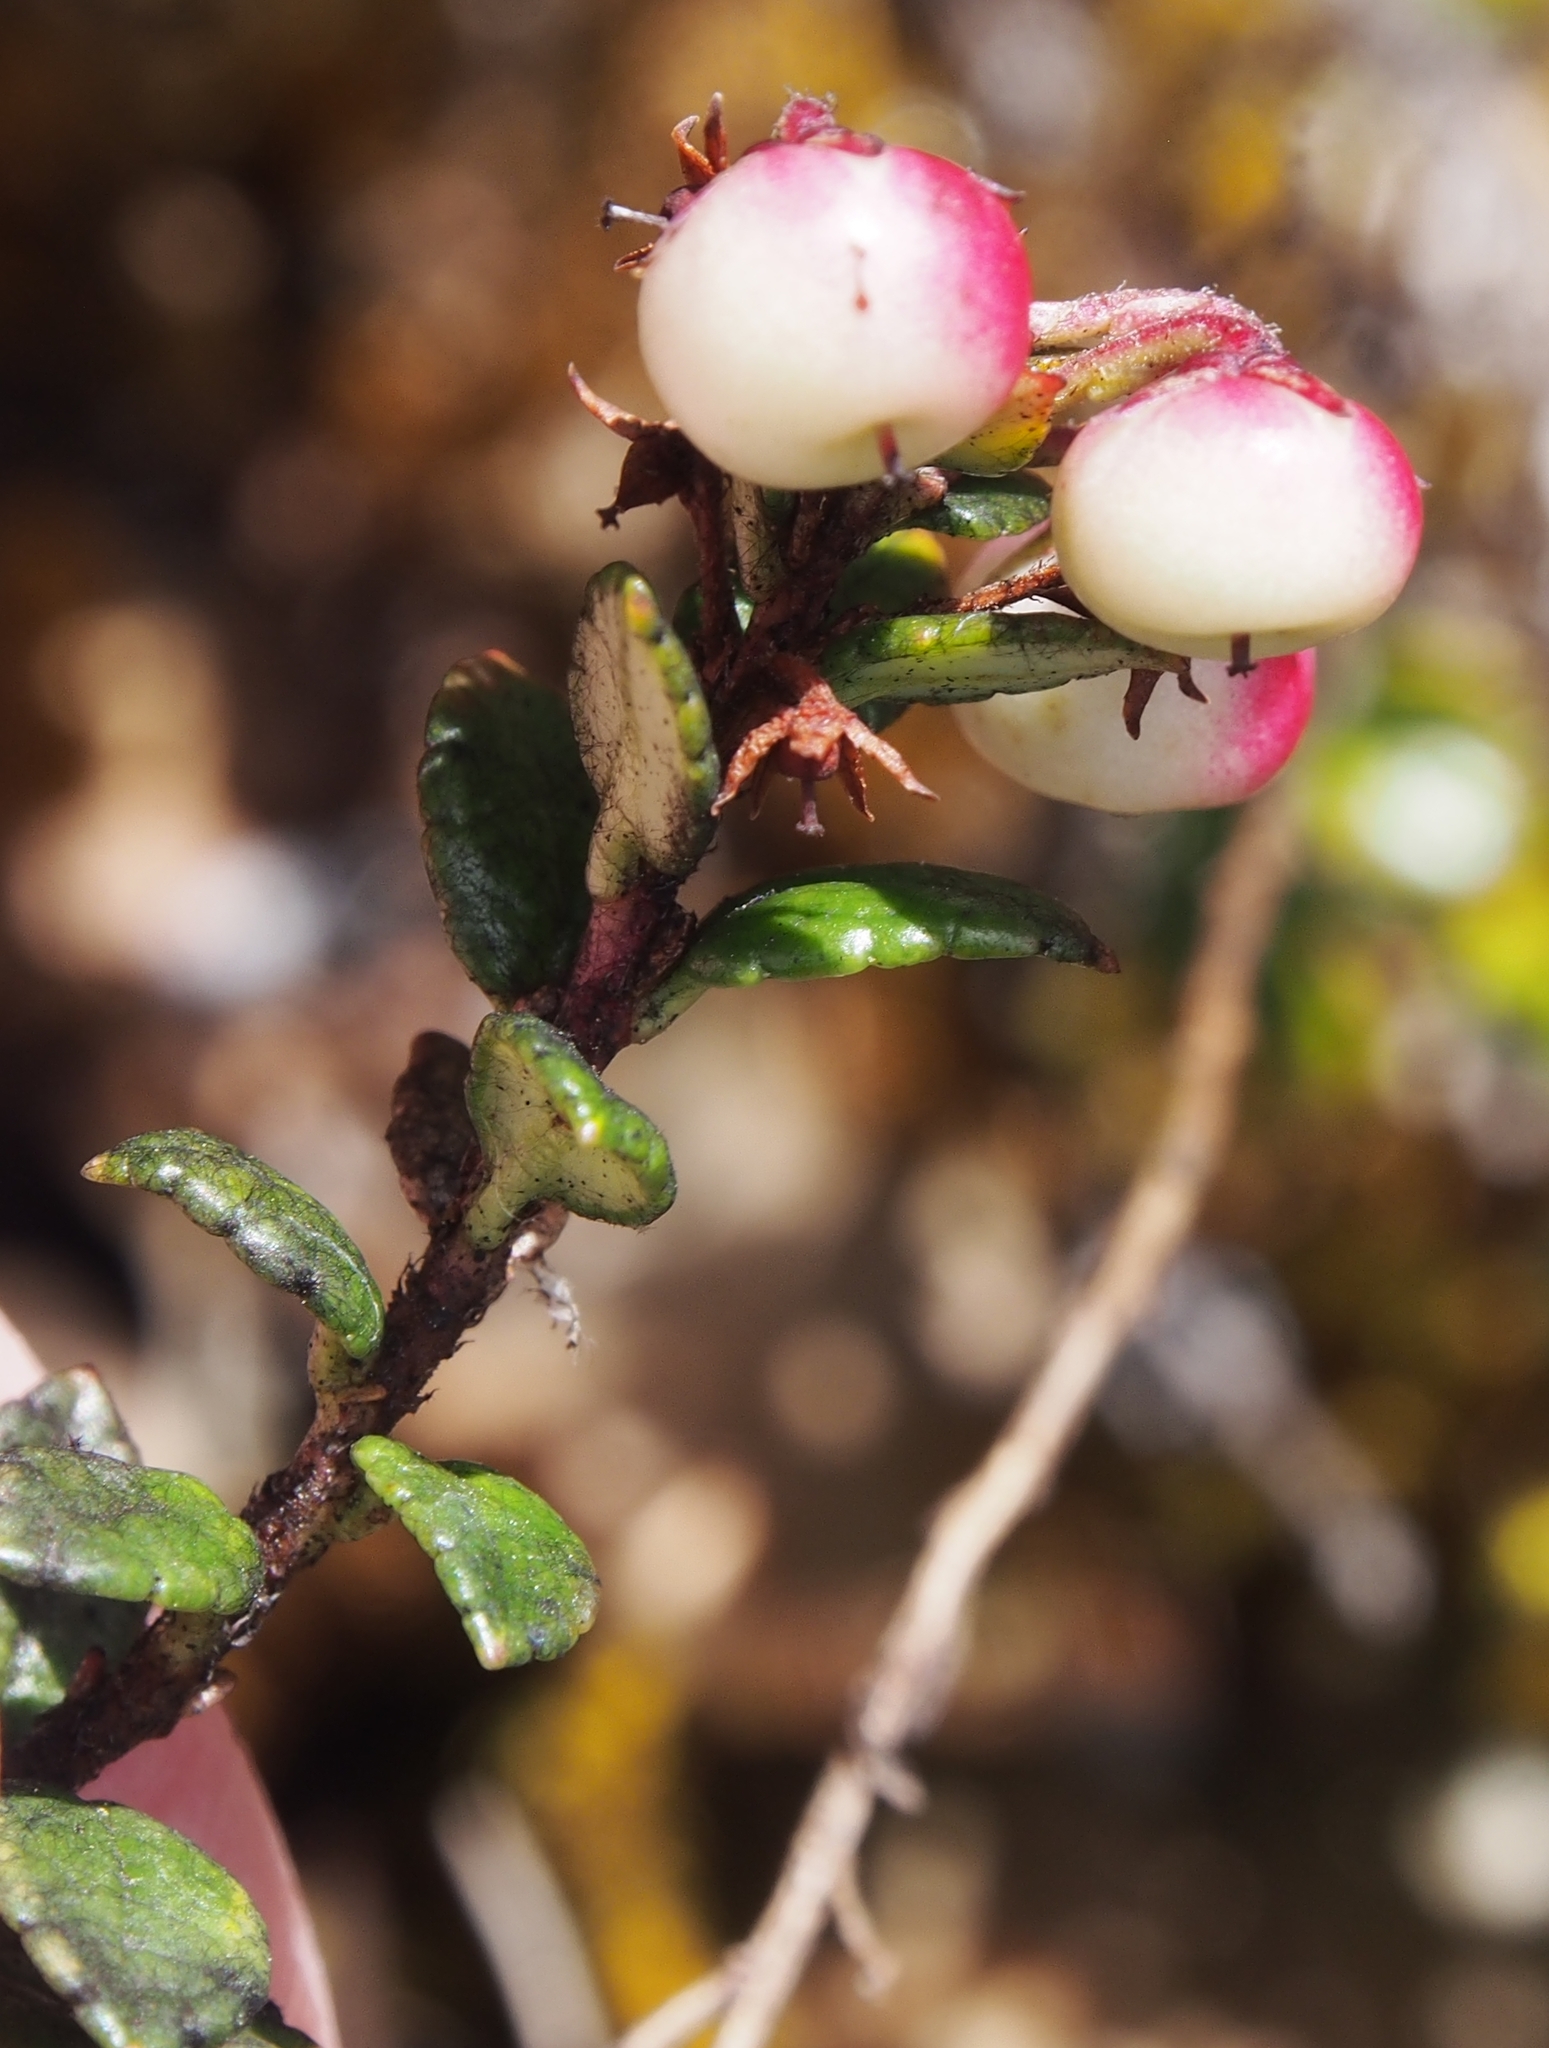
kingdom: Plantae
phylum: Tracheophyta
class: Magnoliopsida
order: Ericales
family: Ericaceae
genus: Gaultheria
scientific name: Gaultheria myrsinoides
